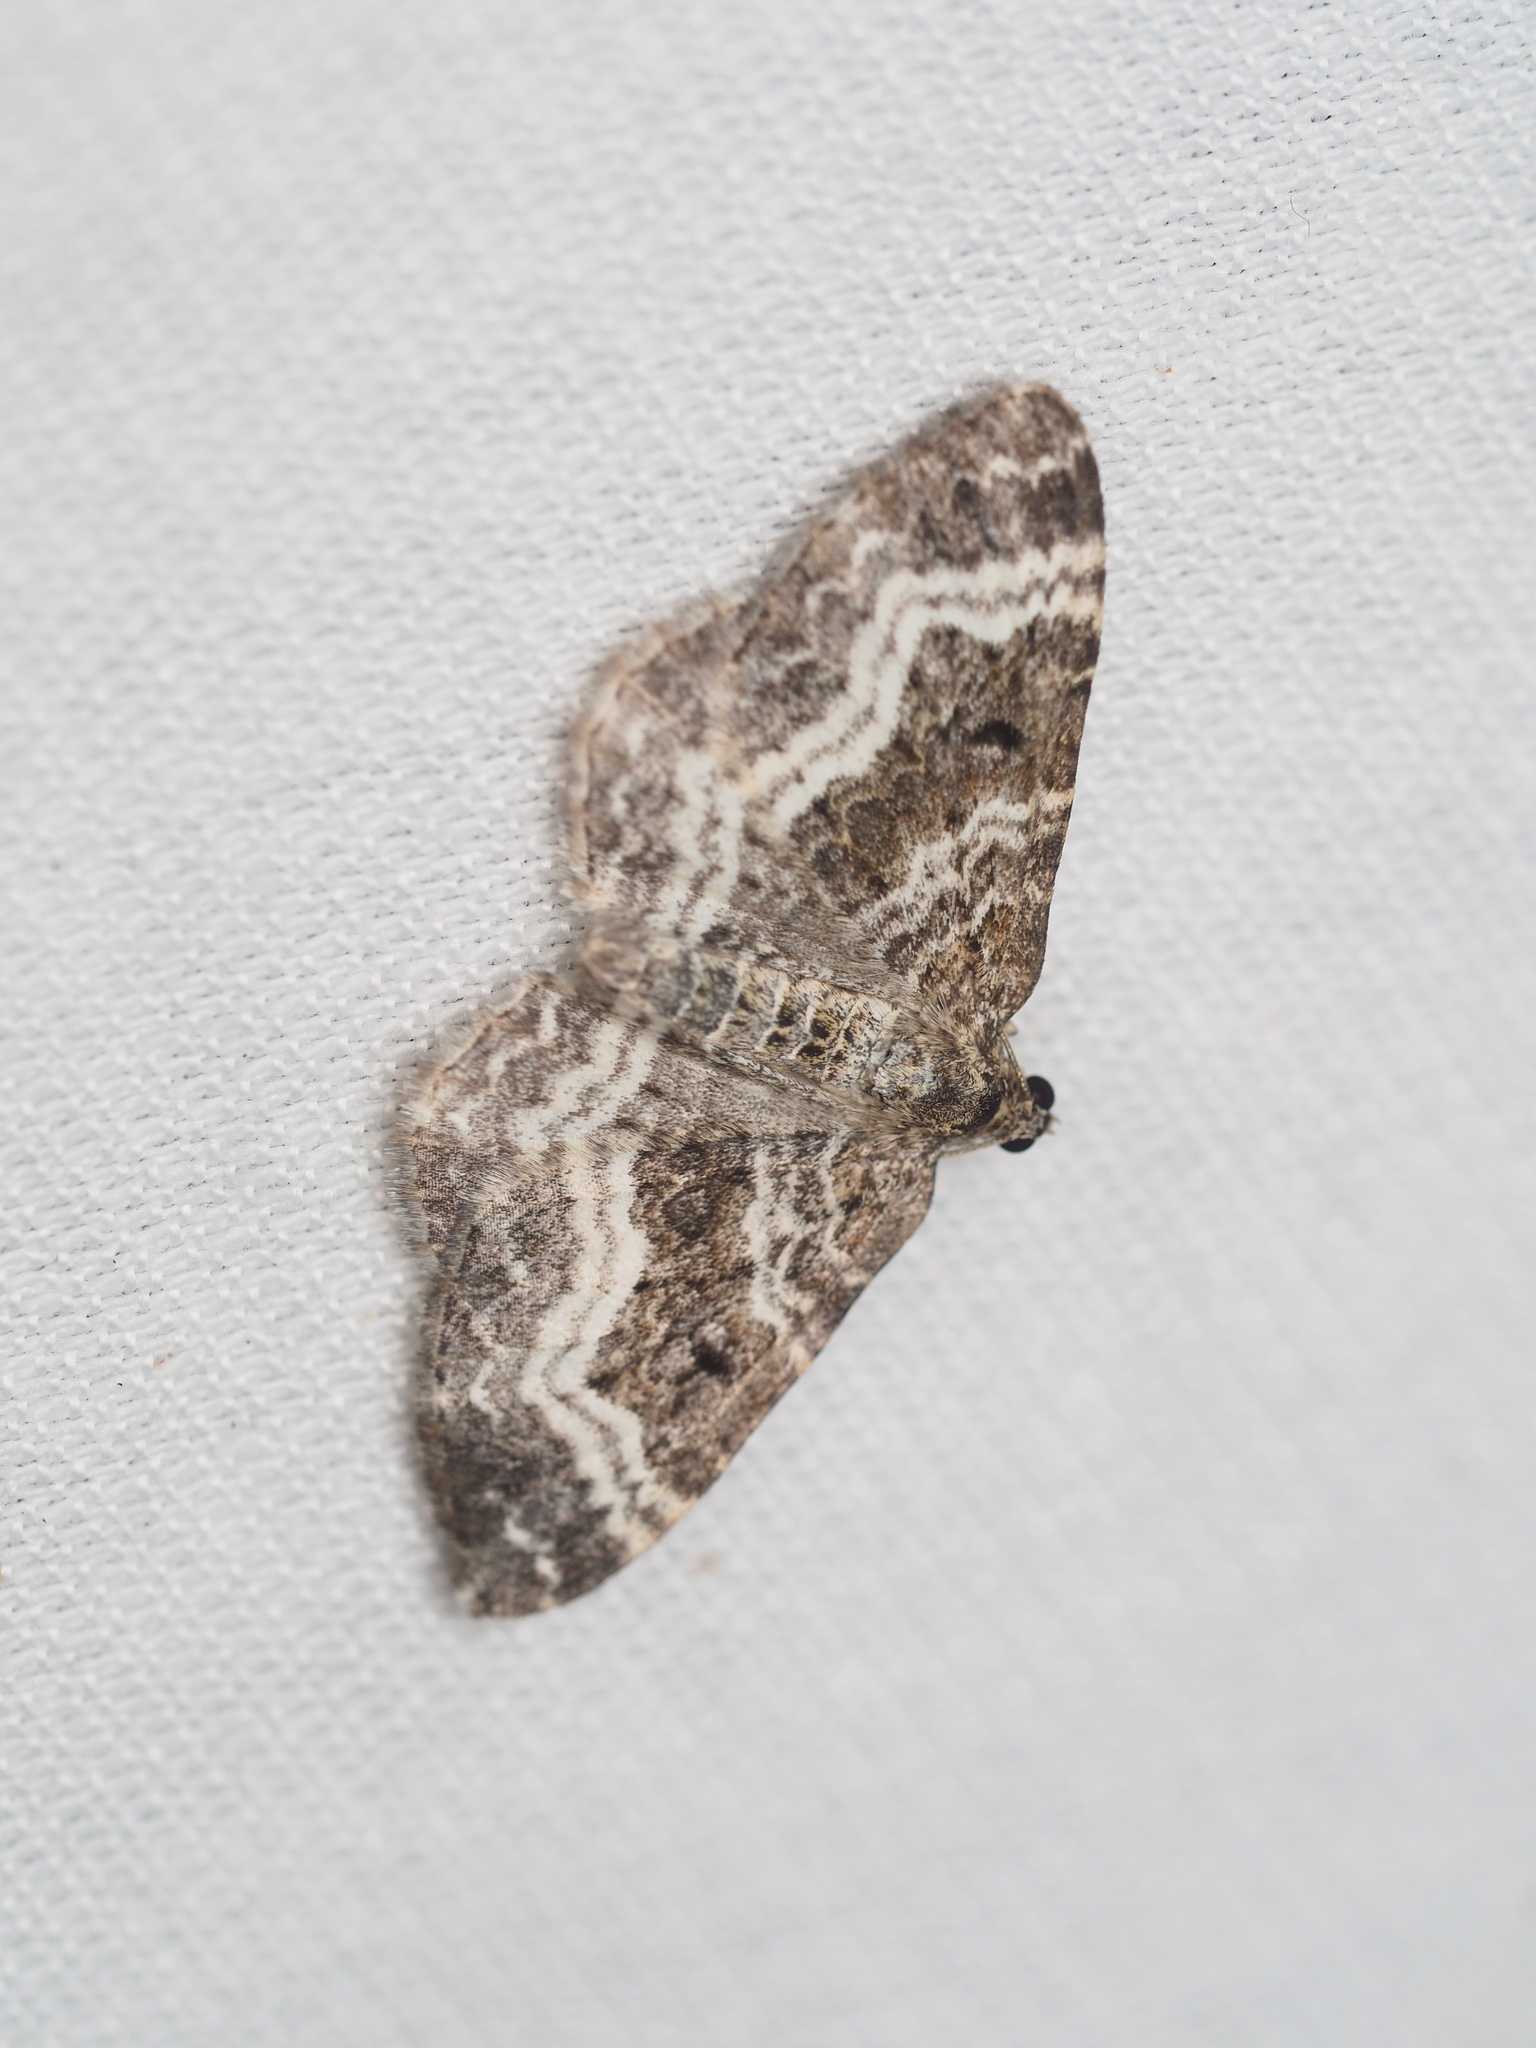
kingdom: Animalia
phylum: Arthropoda
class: Insecta
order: Lepidoptera
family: Geometridae
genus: Epirrhoe
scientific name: Epirrhoe alternata
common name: Common carpet
